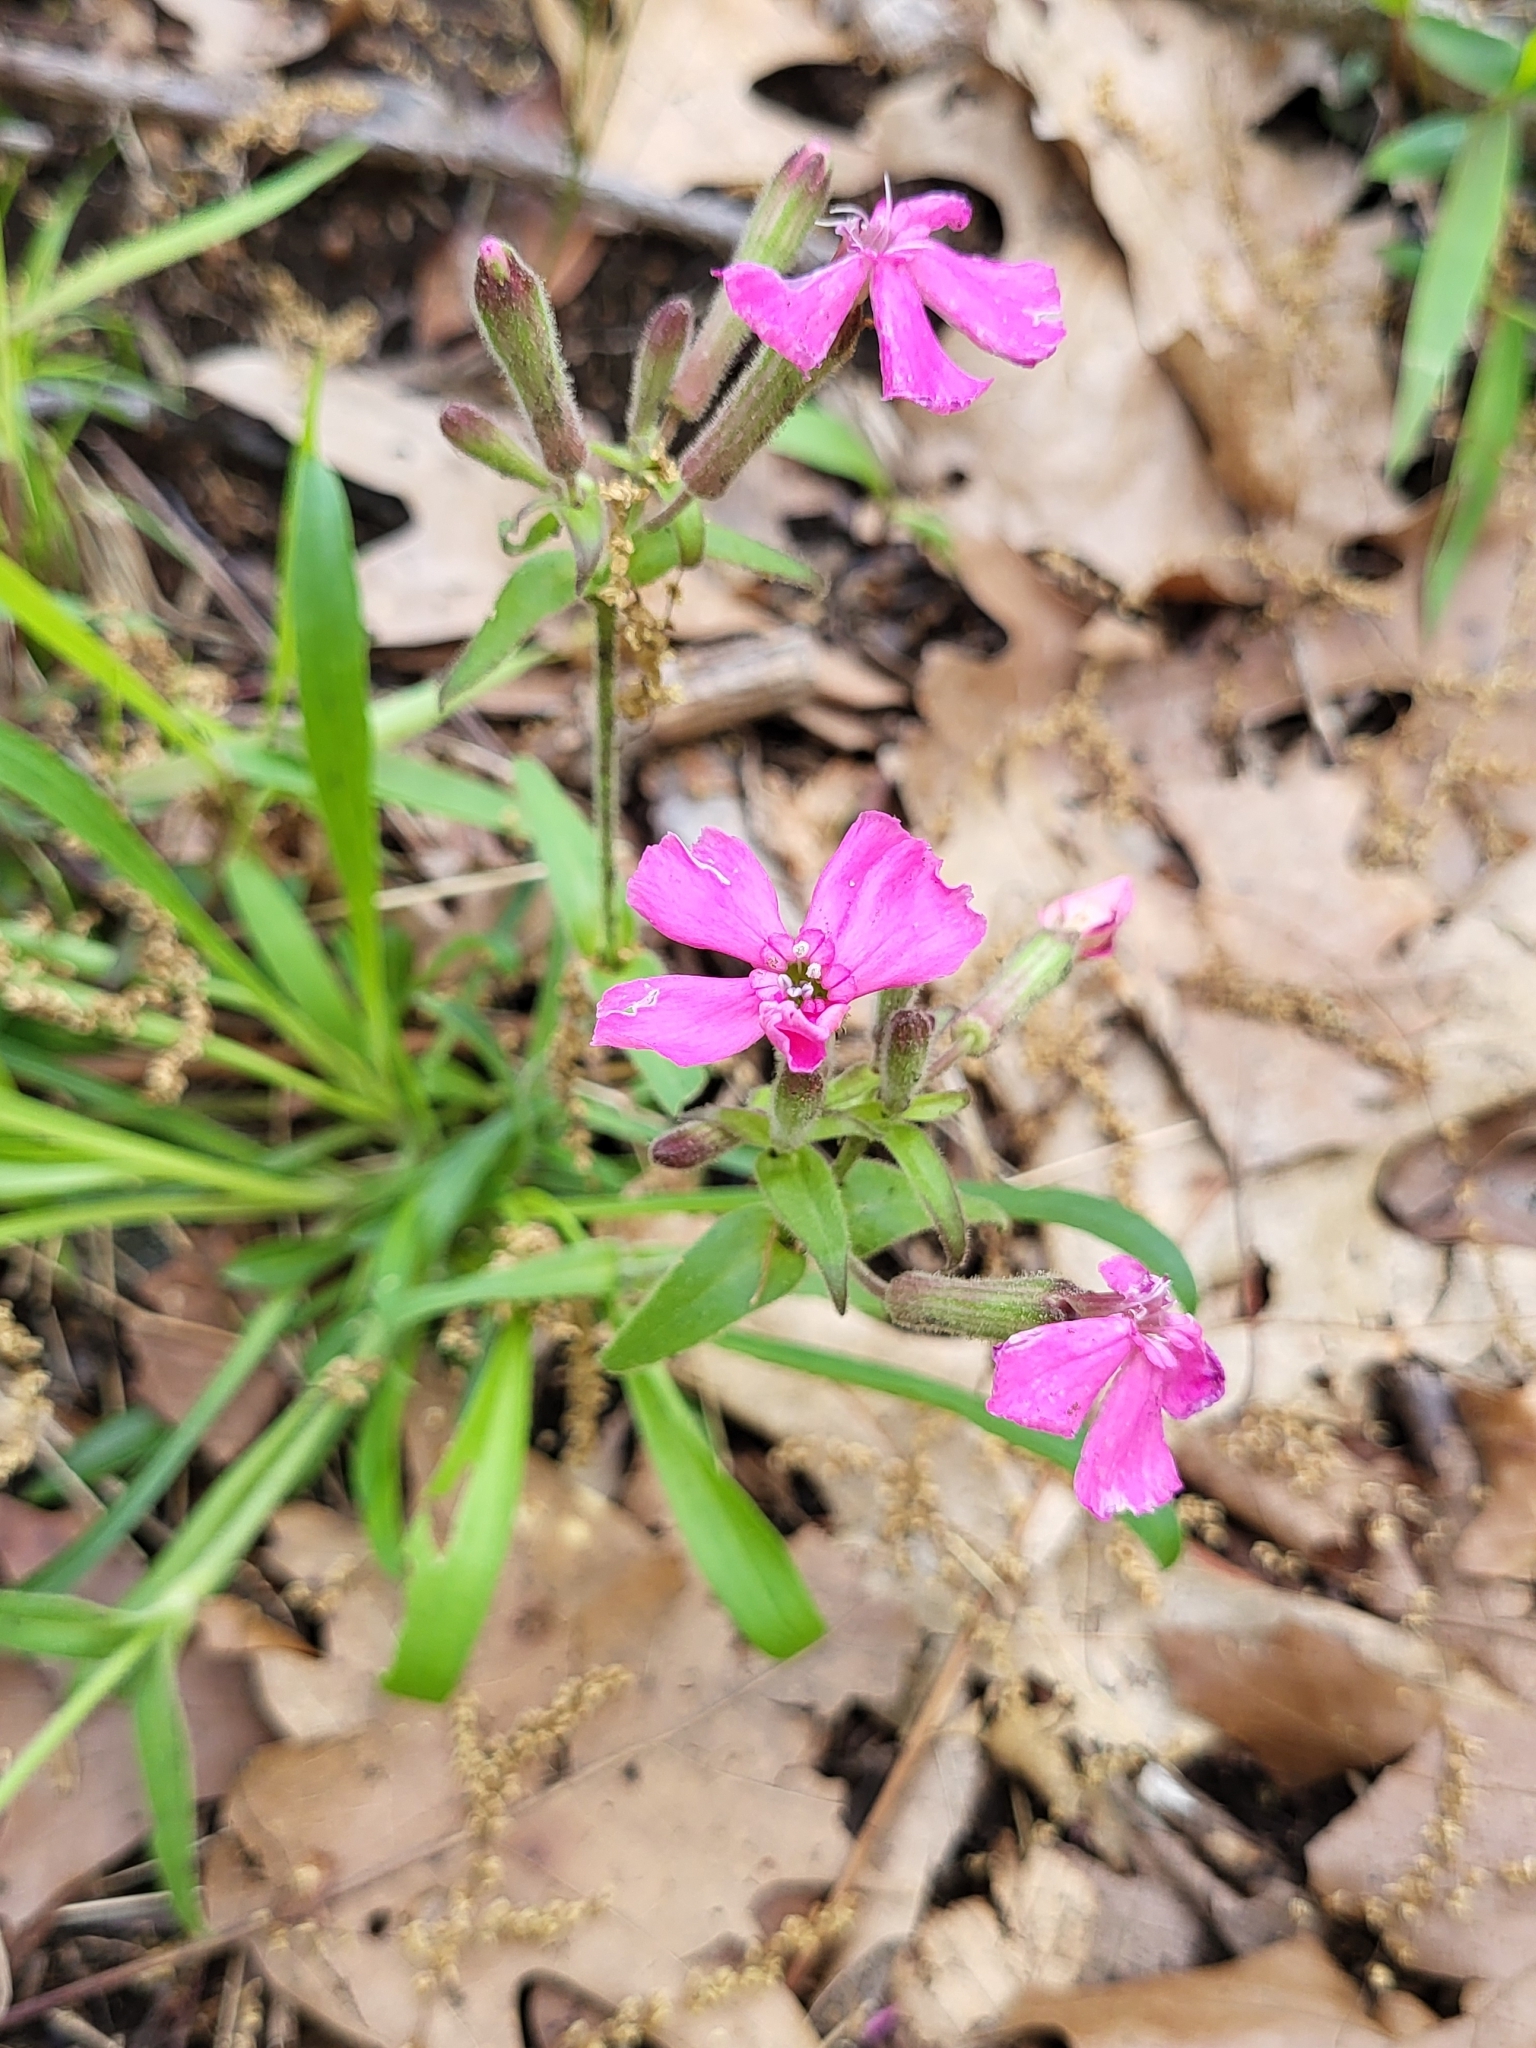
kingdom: Plantae
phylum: Tracheophyta
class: Magnoliopsida
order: Caryophyllales
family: Caryophyllaceae
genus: Silene
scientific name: Silene caroliniana
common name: Sticky catchfly
